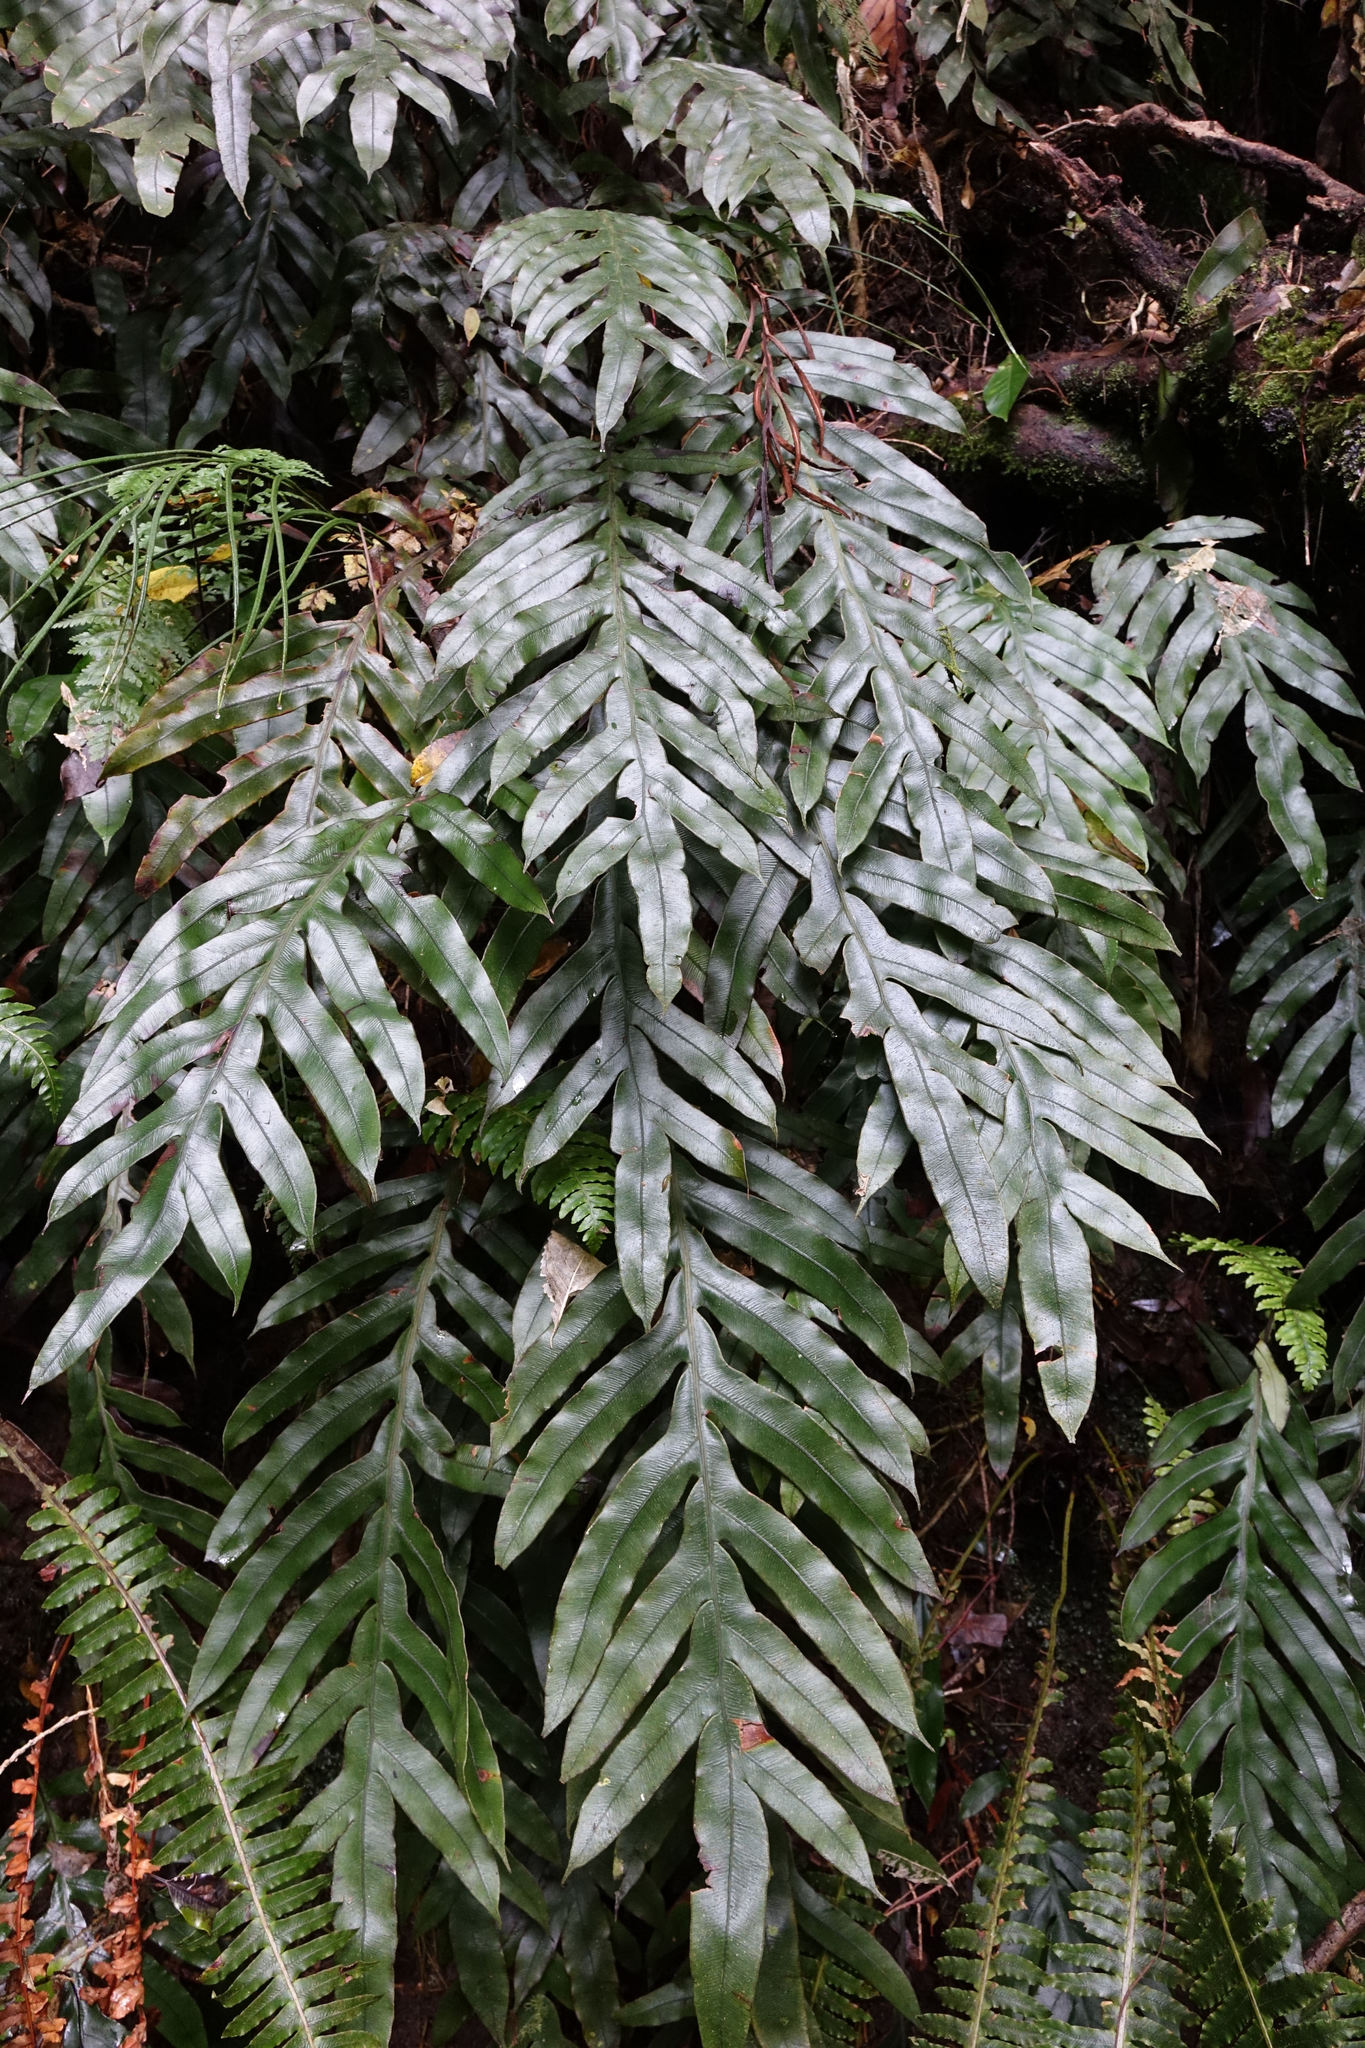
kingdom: Plantae
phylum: Tracheophyta
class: Polypodiopsida
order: Polypodiales
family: Blechnaceae
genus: Austroblechnum
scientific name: Austroblechnum colensoi
